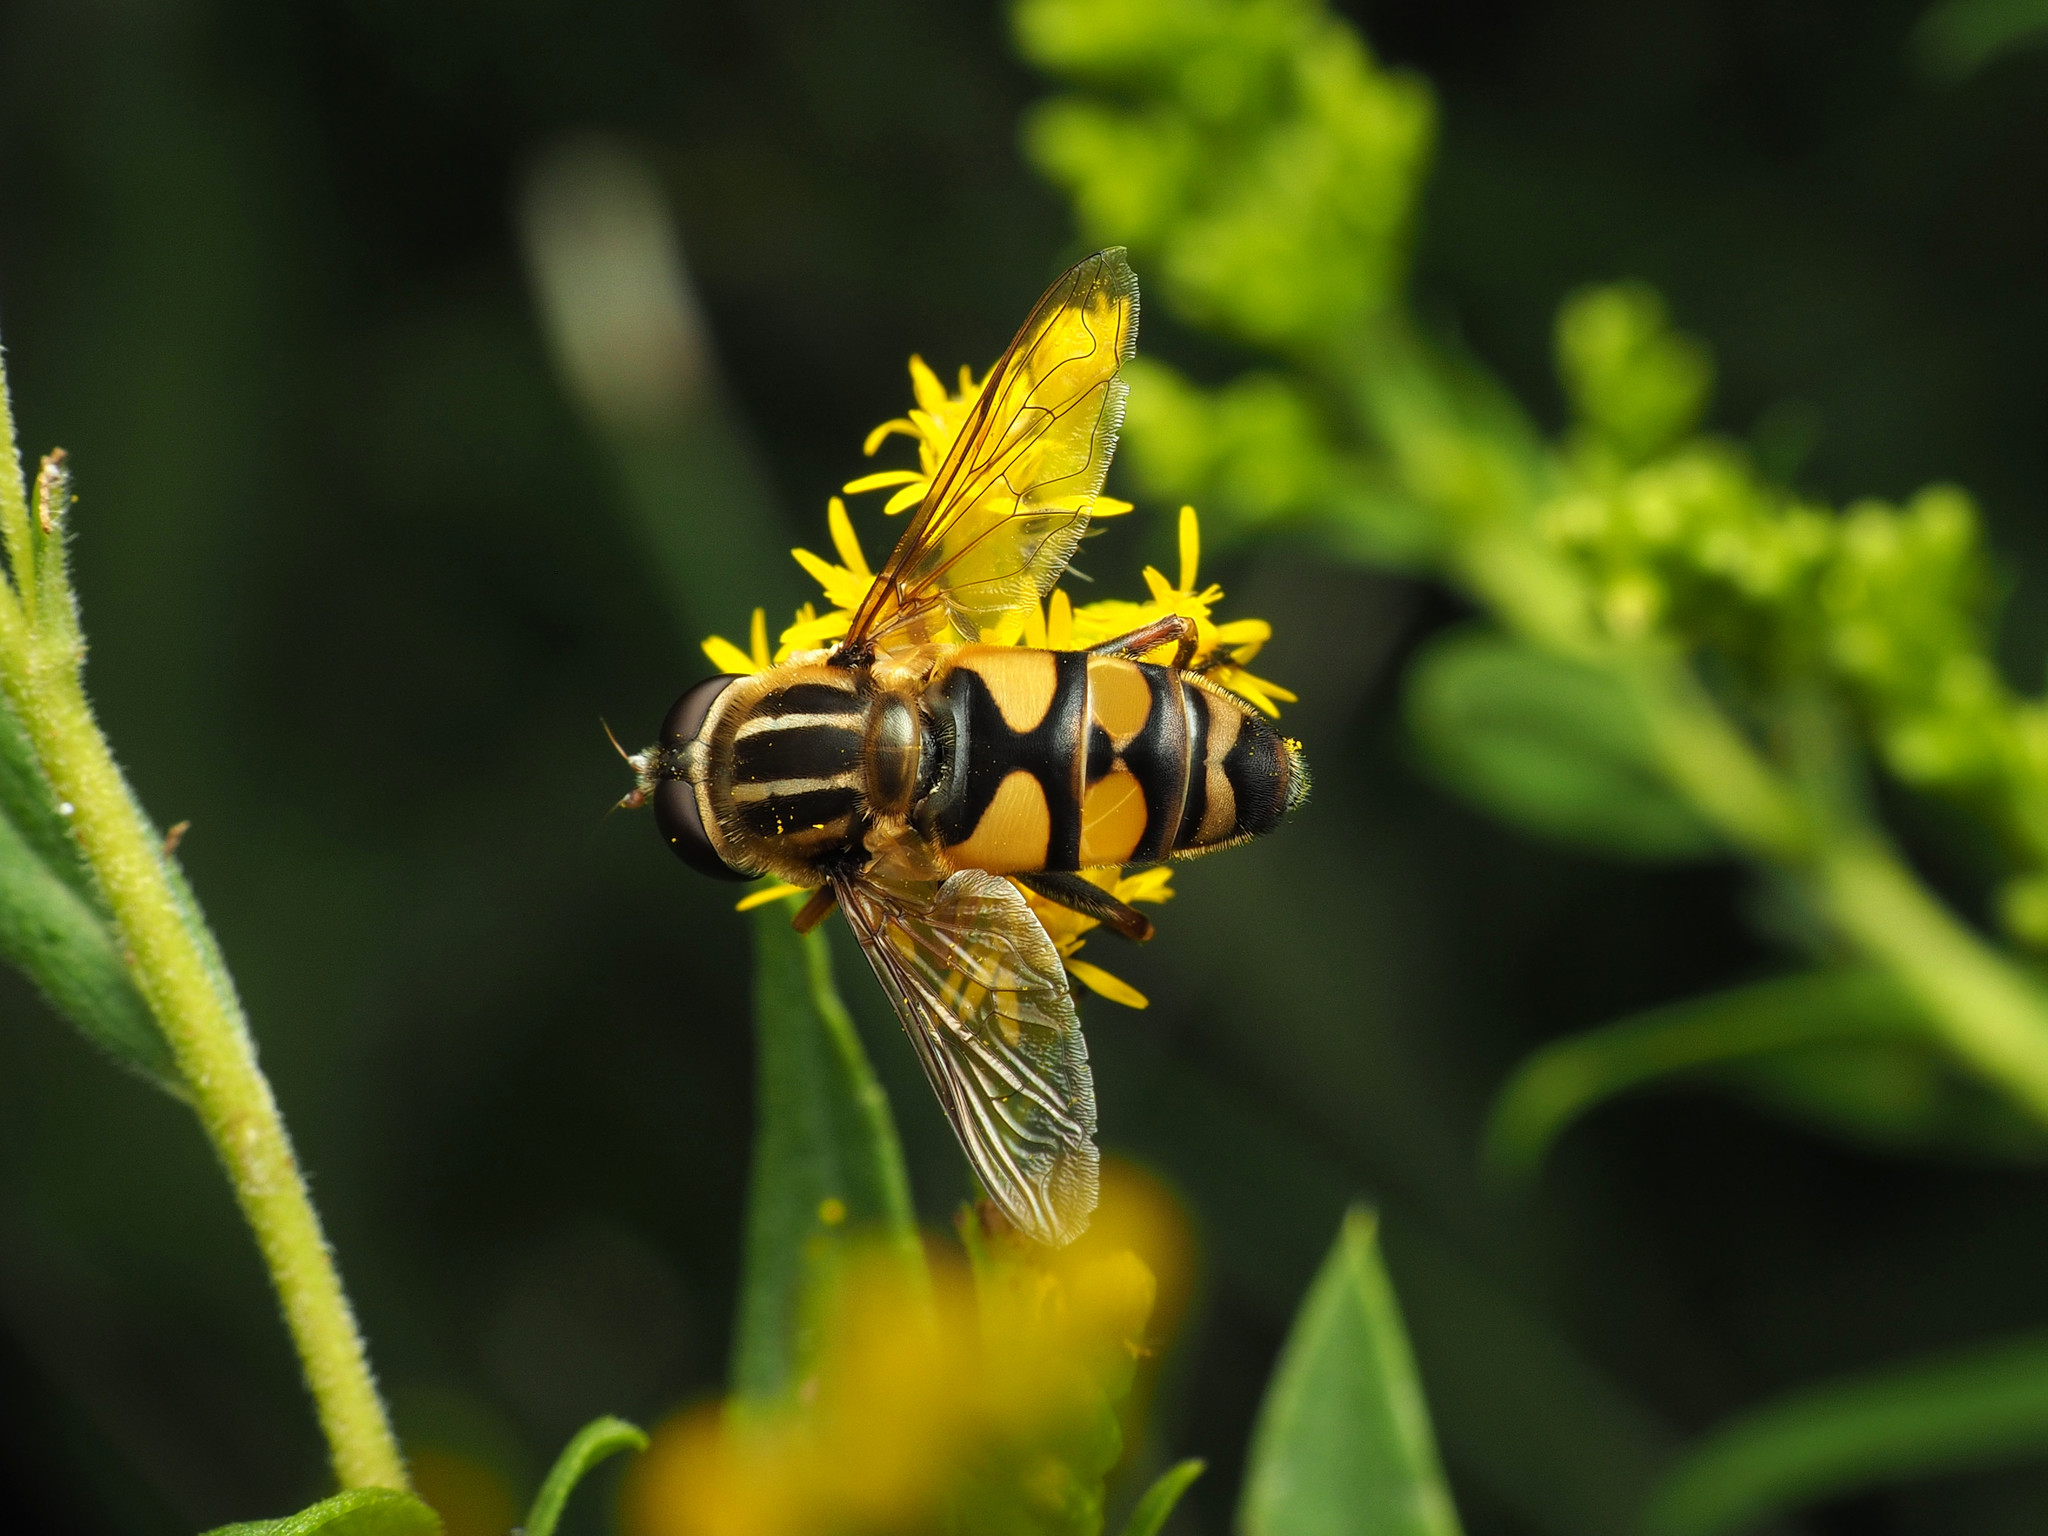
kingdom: Animalia
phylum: Arthropoda
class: Insecta
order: Diptera
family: Syrphidae
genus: Helophilus
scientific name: Helophilus fasciatus
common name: Narrow-headed marsh fly
